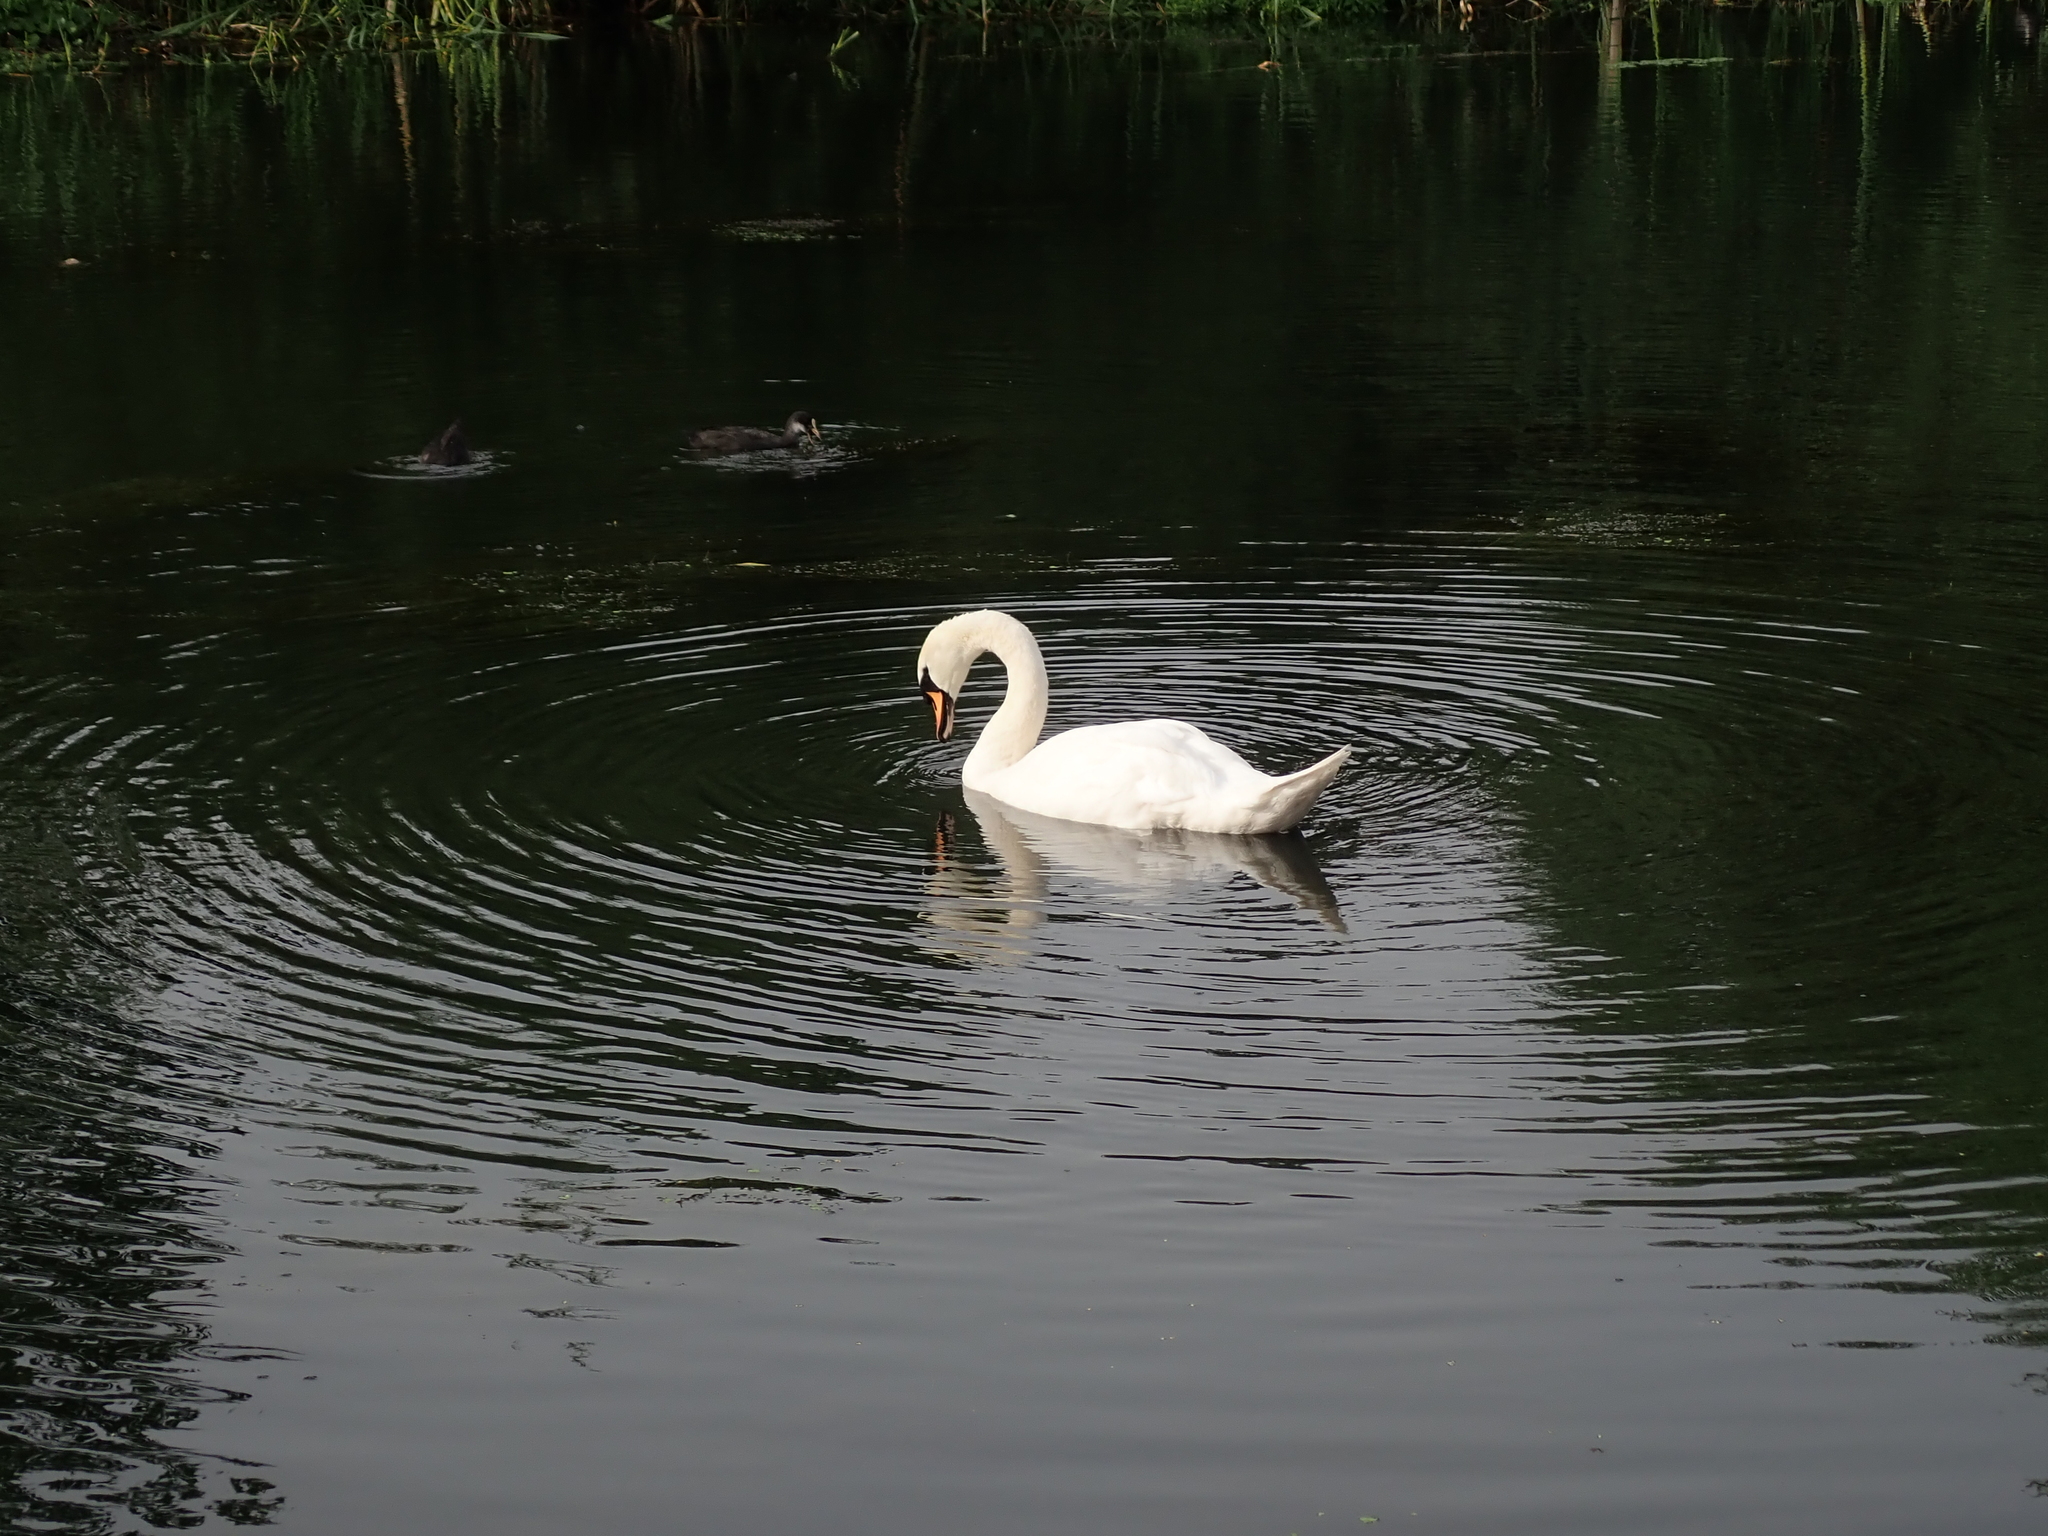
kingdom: Animalia
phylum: Chordata
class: Aves
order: Anseriformes
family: Anatidae
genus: Cygnus
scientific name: Cygnus olor
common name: Mute swan
